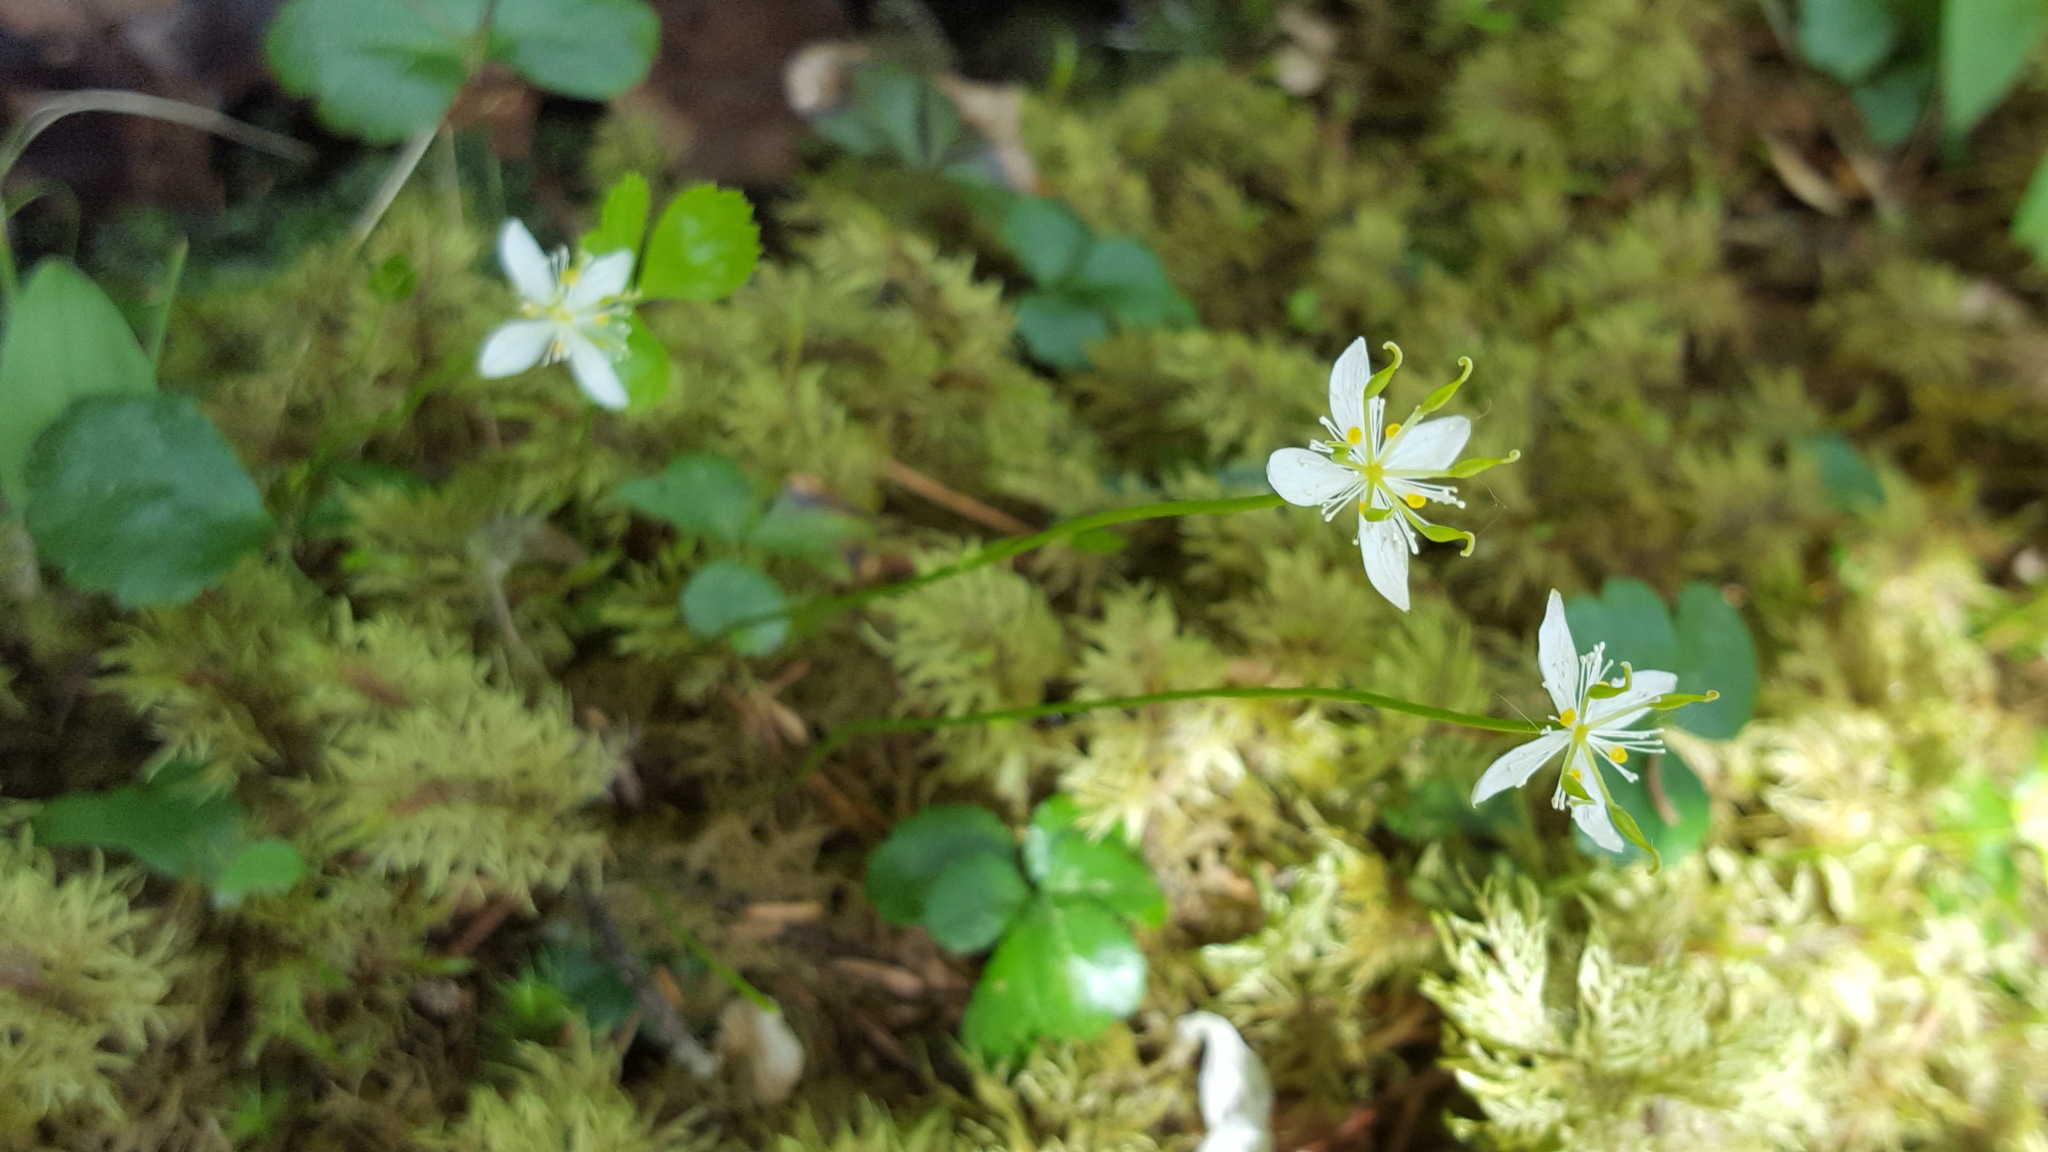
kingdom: Plantae
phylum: Tracheophyta
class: Magnoliopsida
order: Ranunculales
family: Ranunculaceae
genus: Coptis
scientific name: Coptis trifolia
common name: Canker-root
